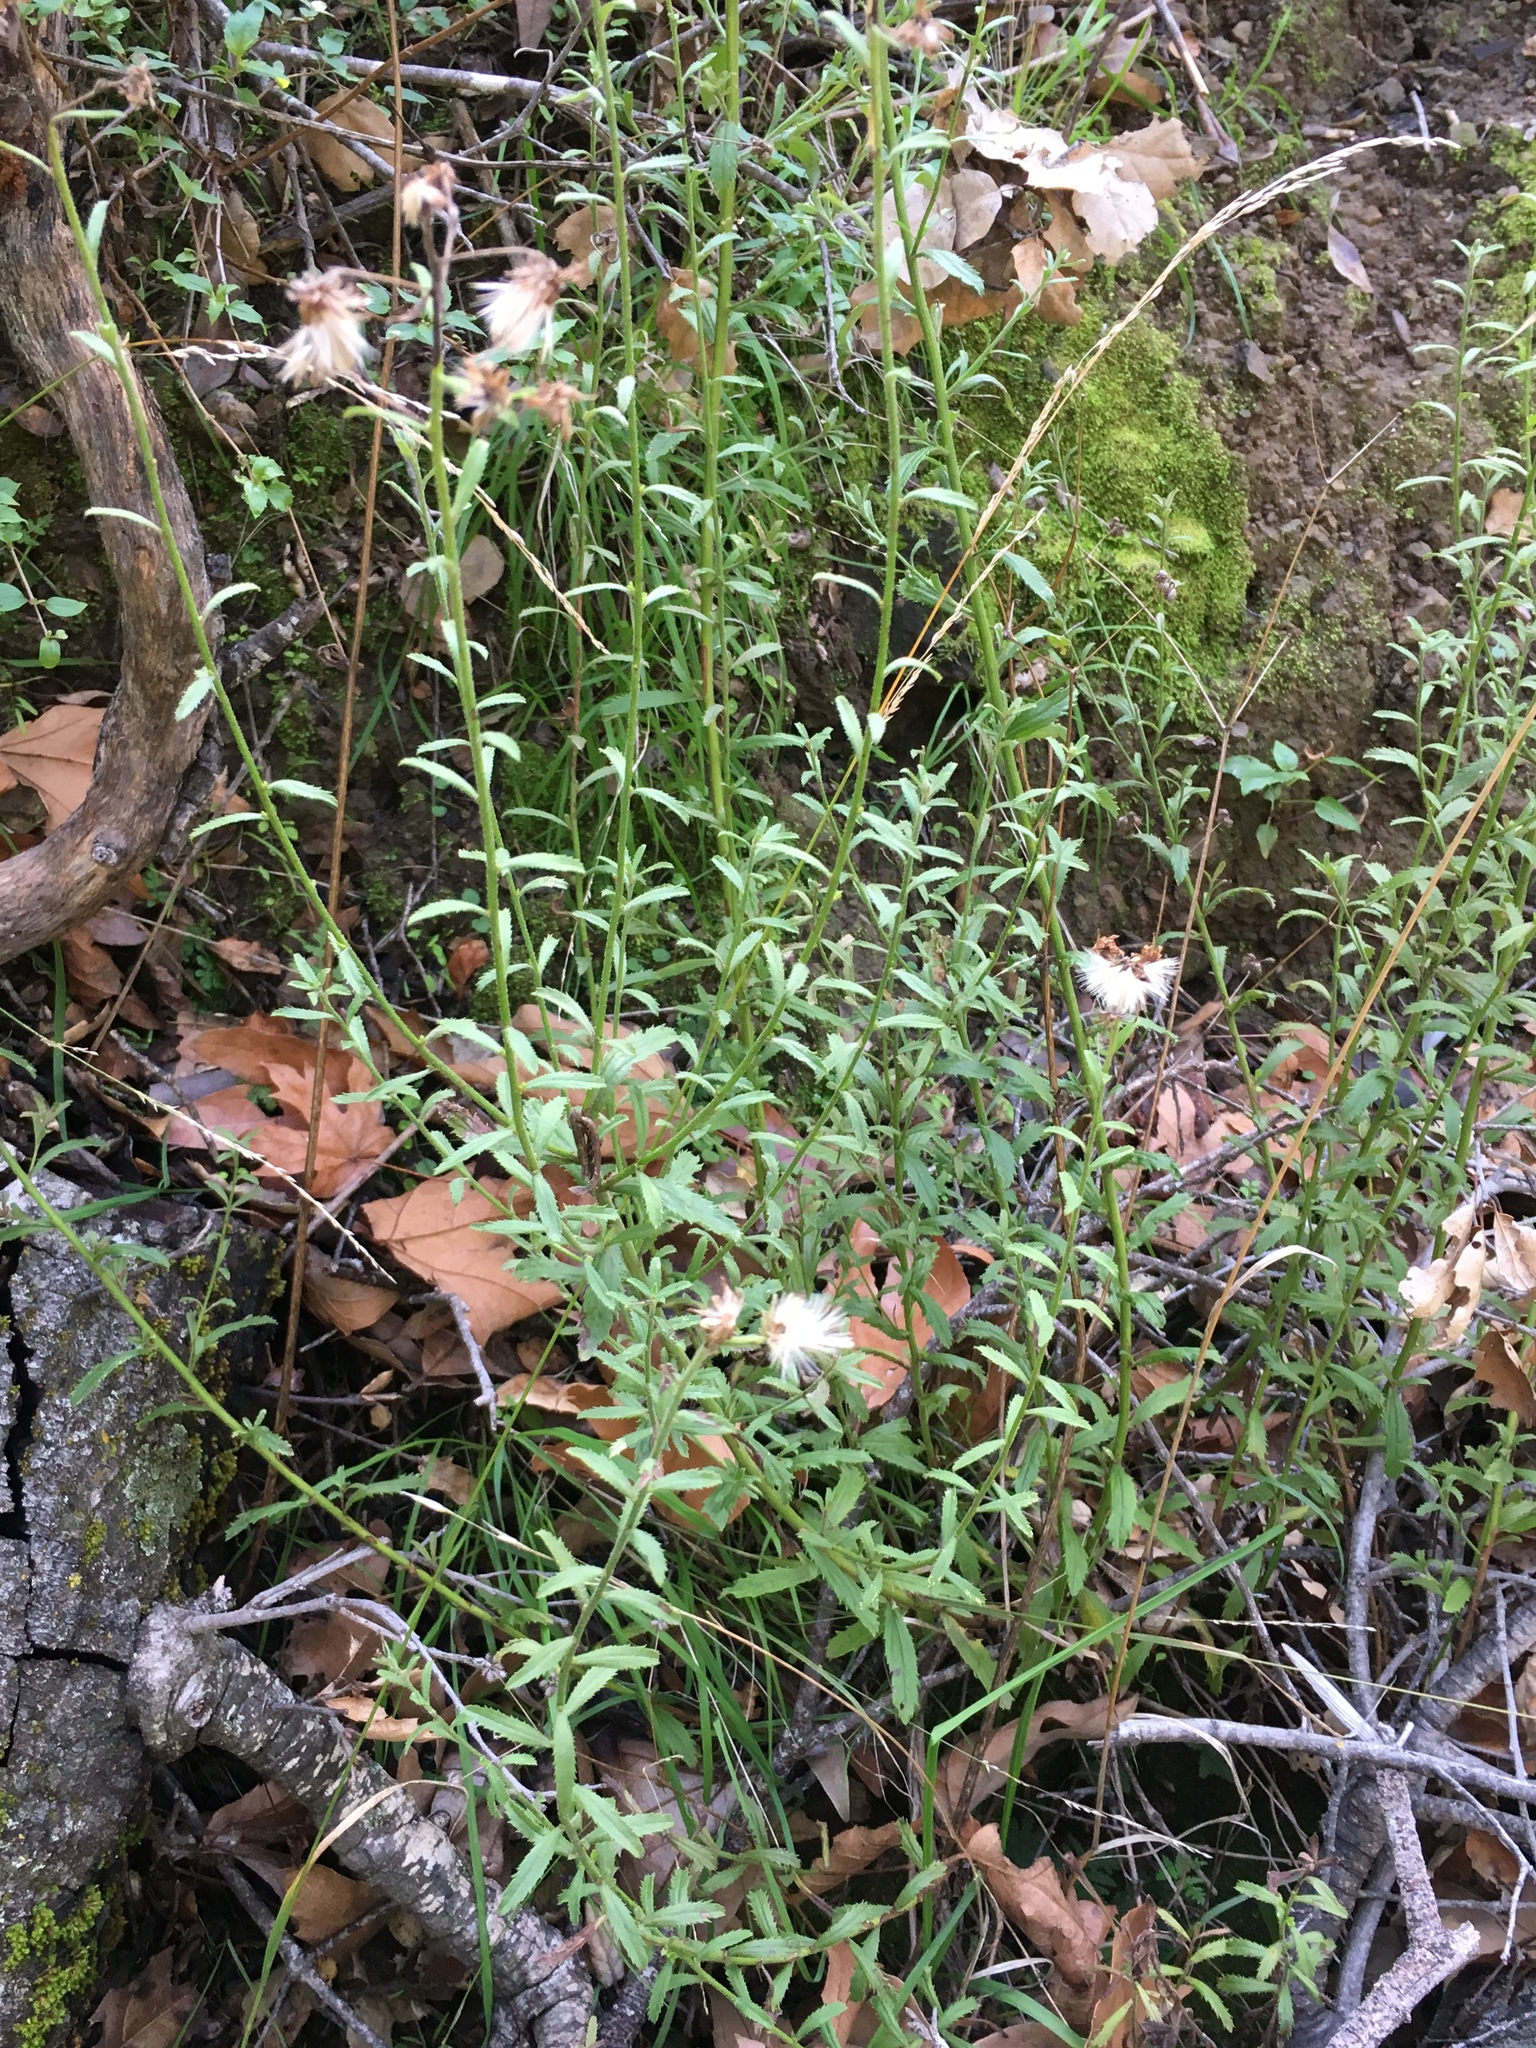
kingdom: Plantae
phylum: Tracheophyta
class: Magnoliopsida
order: Asterales
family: Asteraceae
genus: Baccharis
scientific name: Baccharis plummerae
